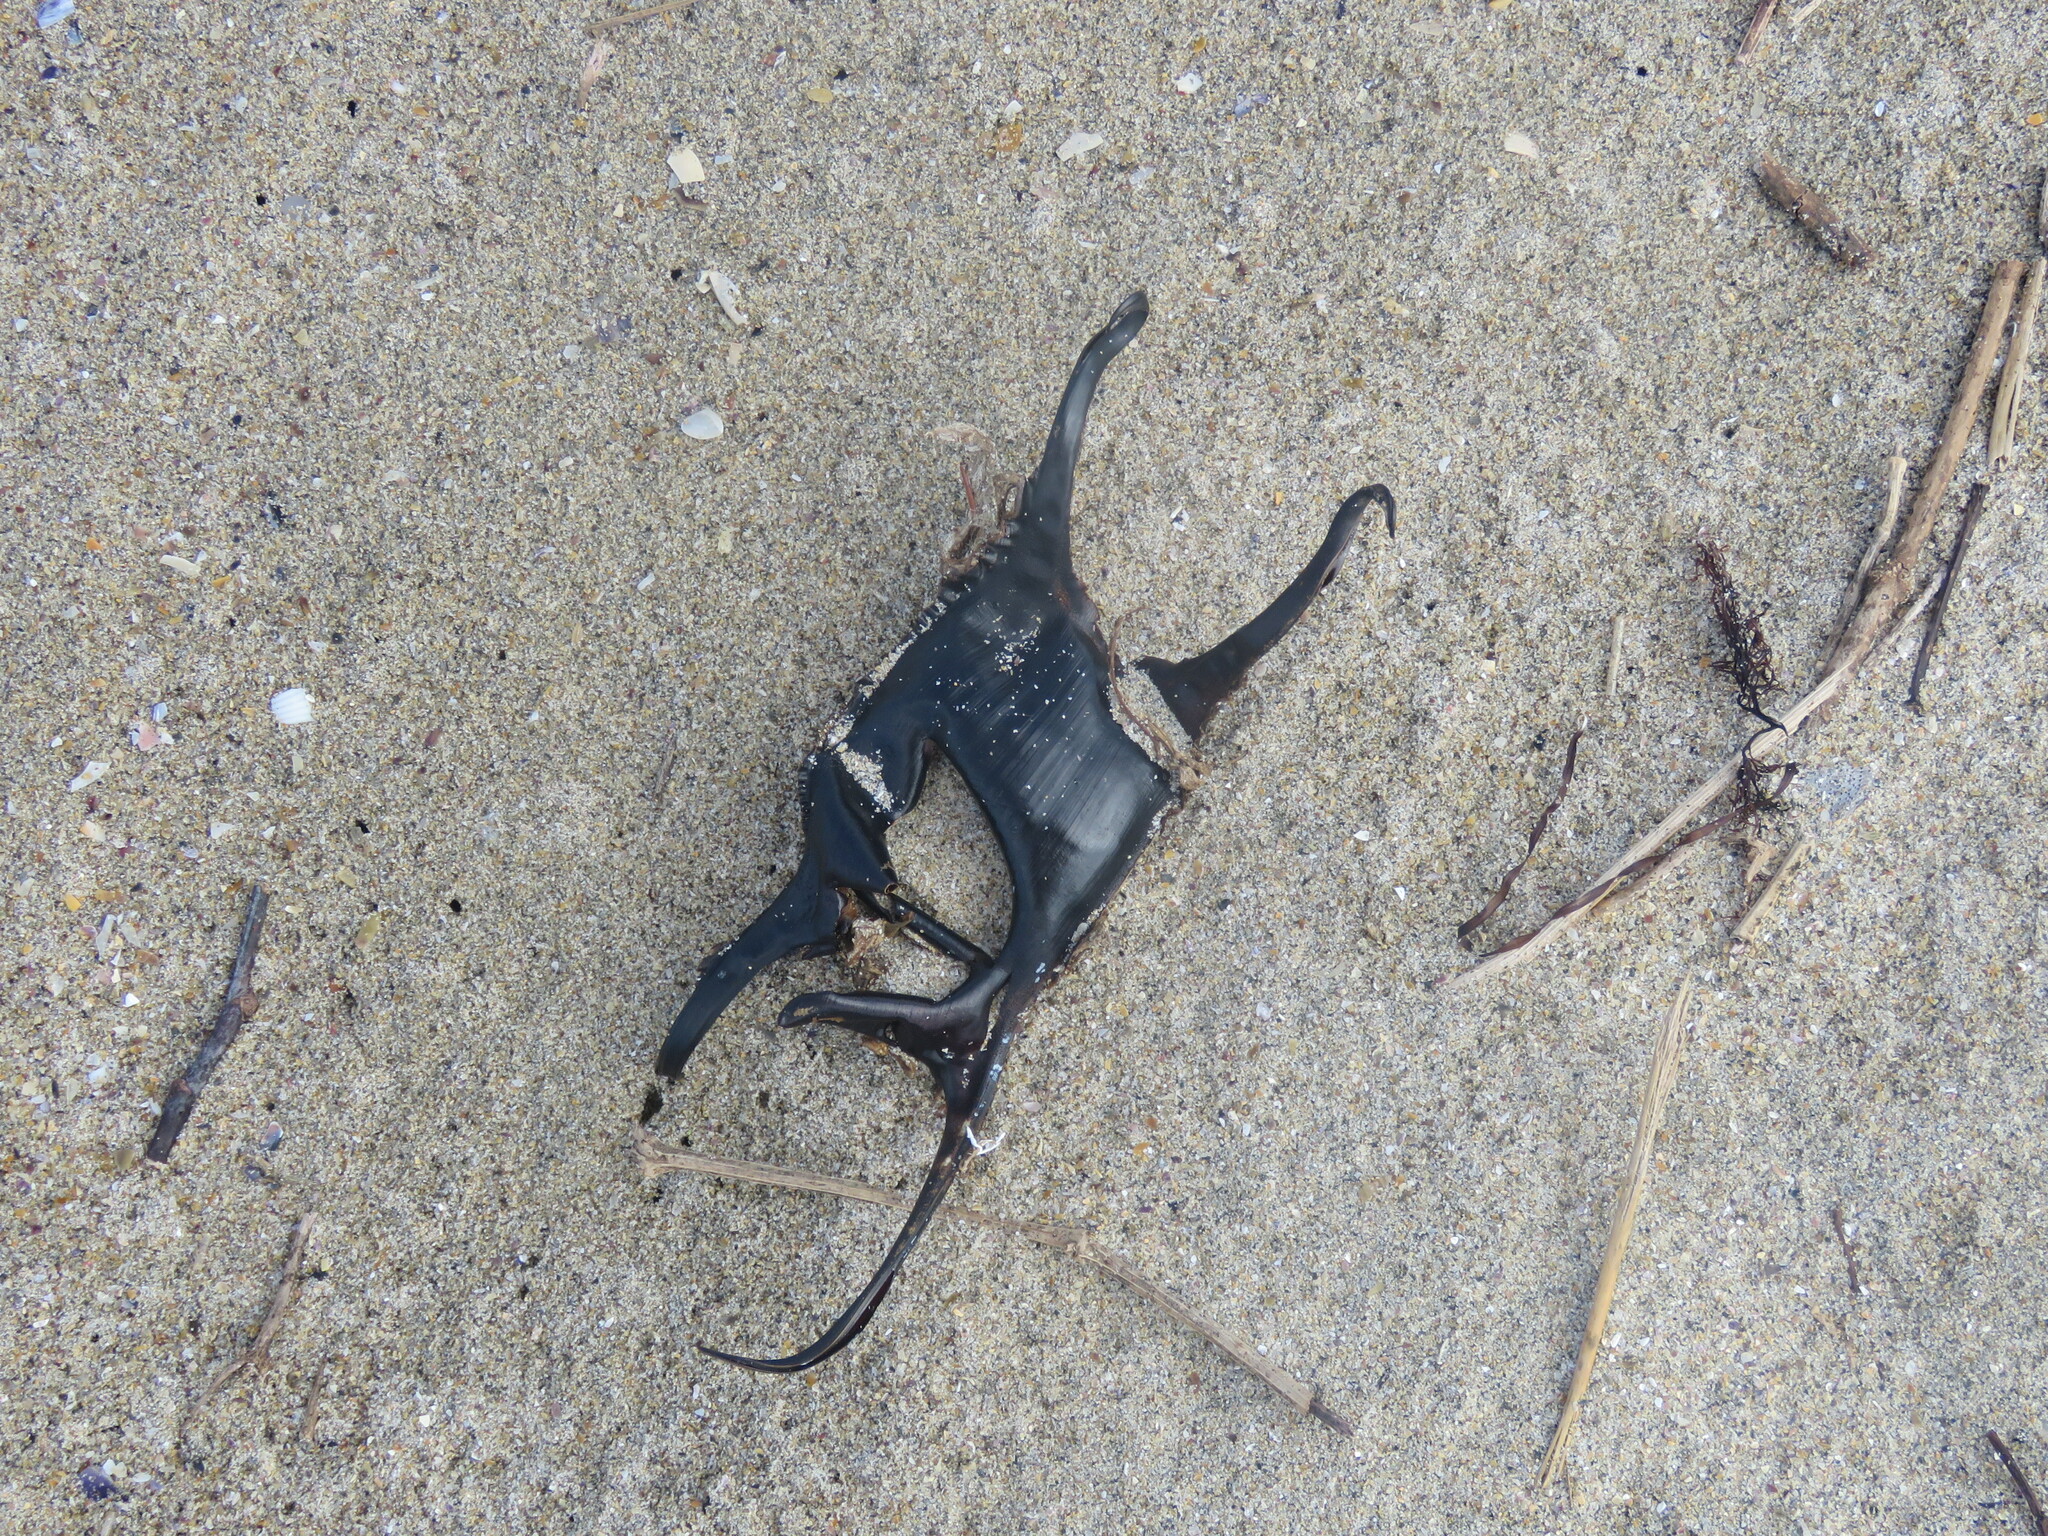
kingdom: Animalia
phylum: Chordata
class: Elasmobranchii
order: Rajiformes
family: Rajidae
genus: Raja
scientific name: Raja undulata
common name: Undulate ray
